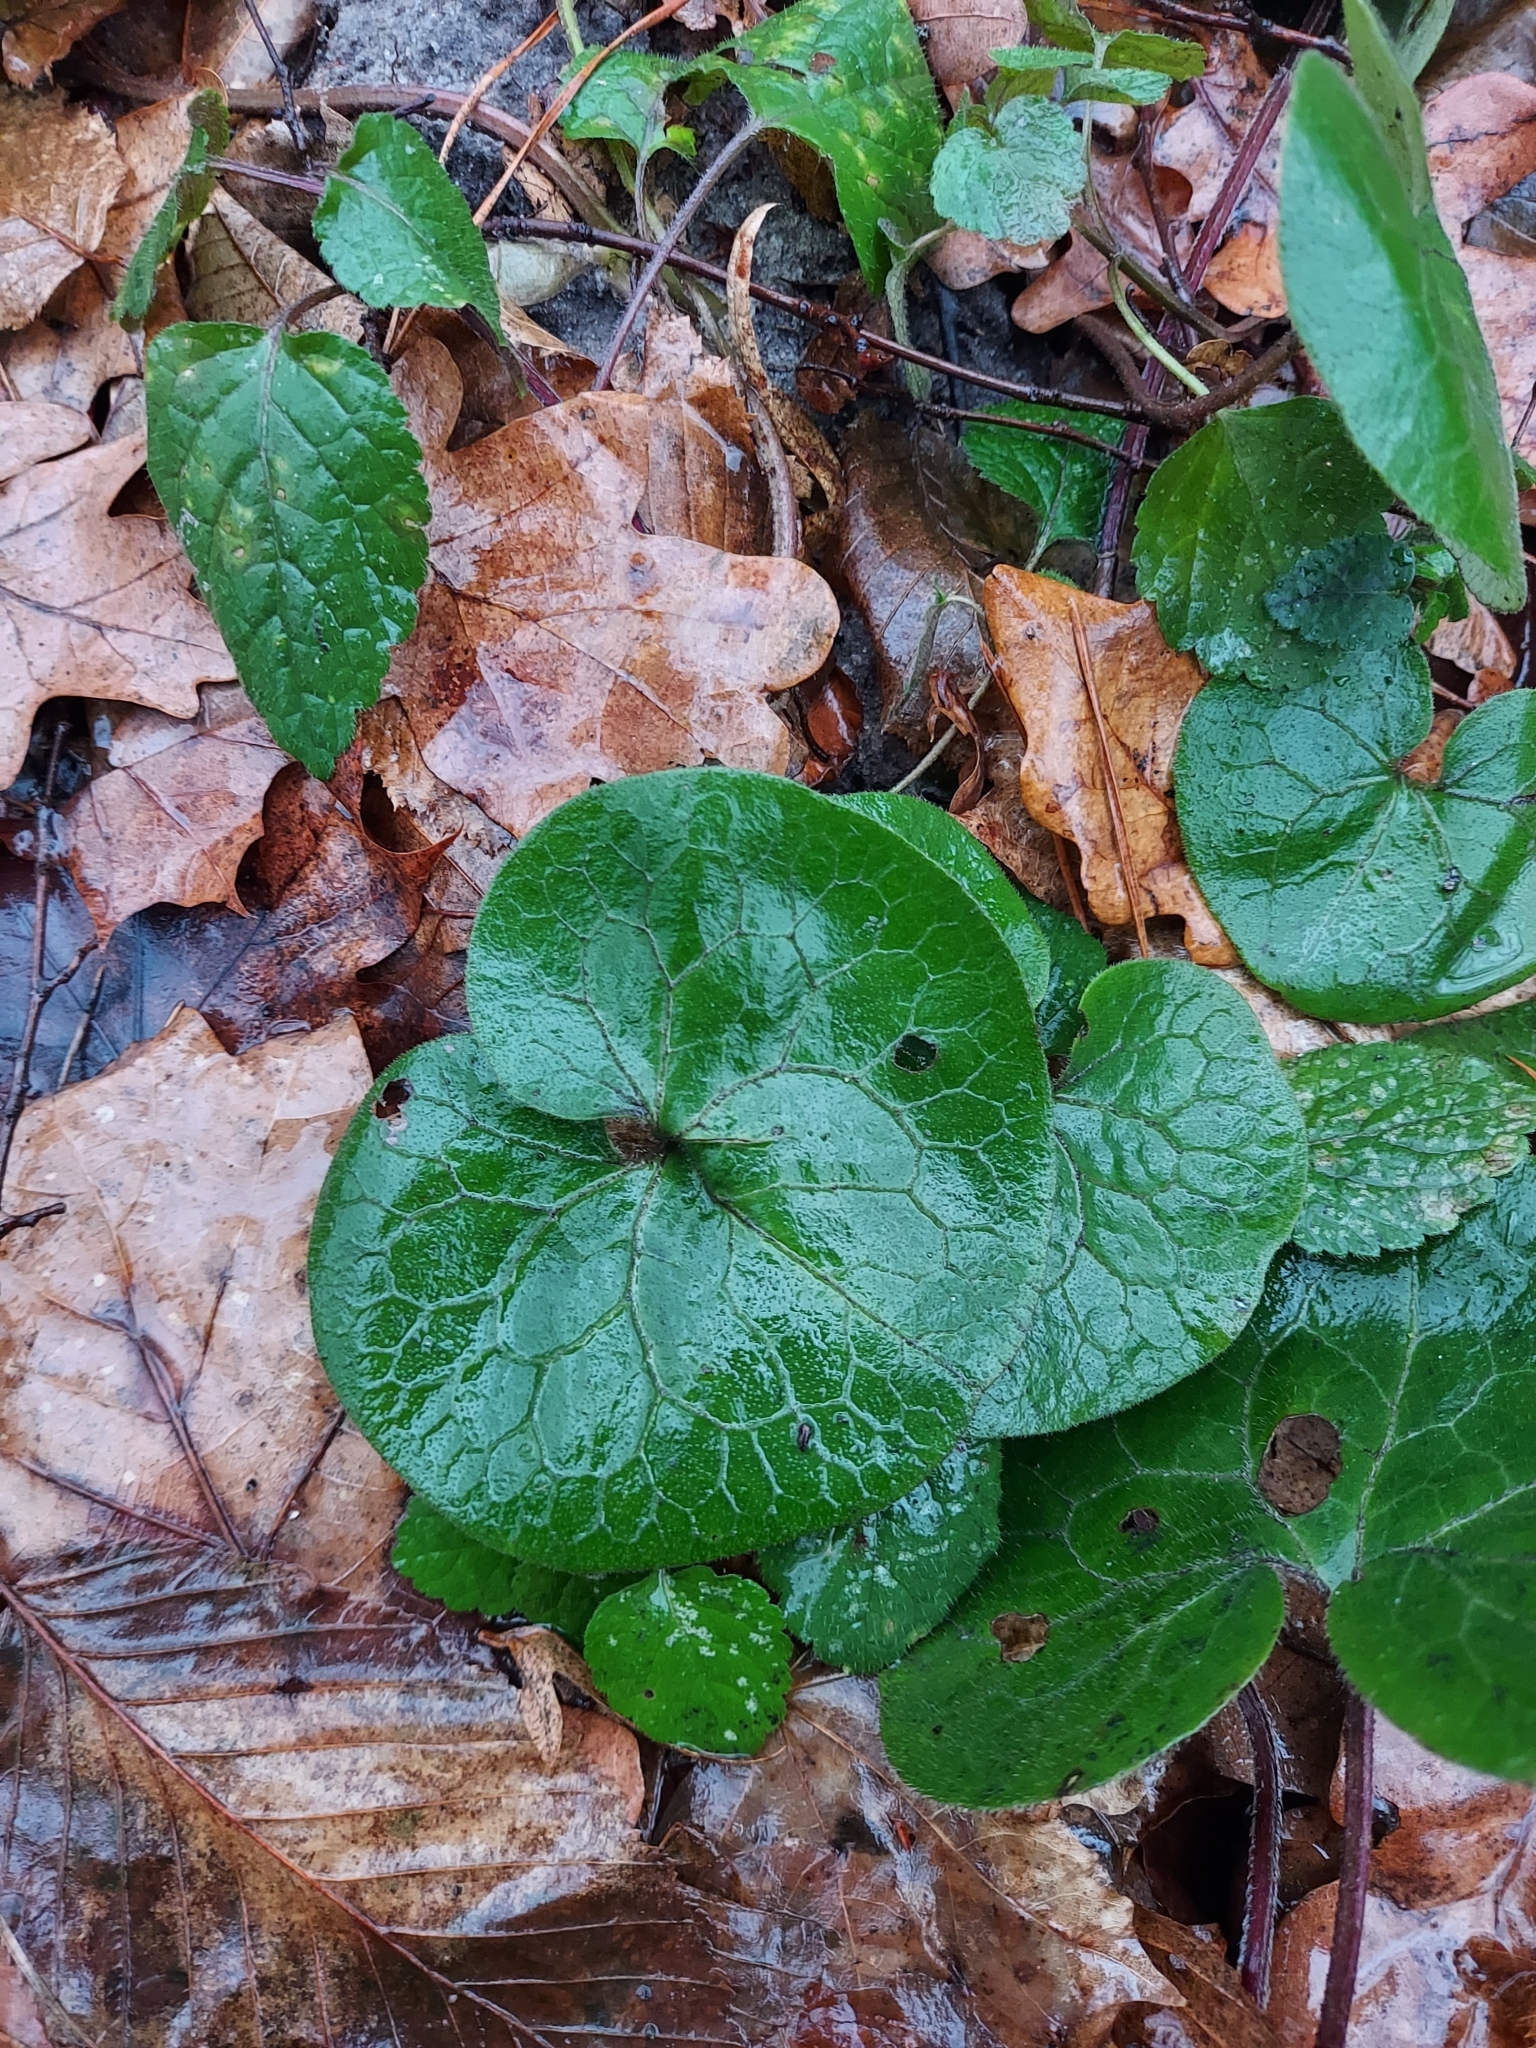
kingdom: Plantae
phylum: Tracheophyta
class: Magnoliopsida
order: Piperales
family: Aristolochiaceae
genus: Asarum
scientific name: Asarum europaeum
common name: Asarabacca
